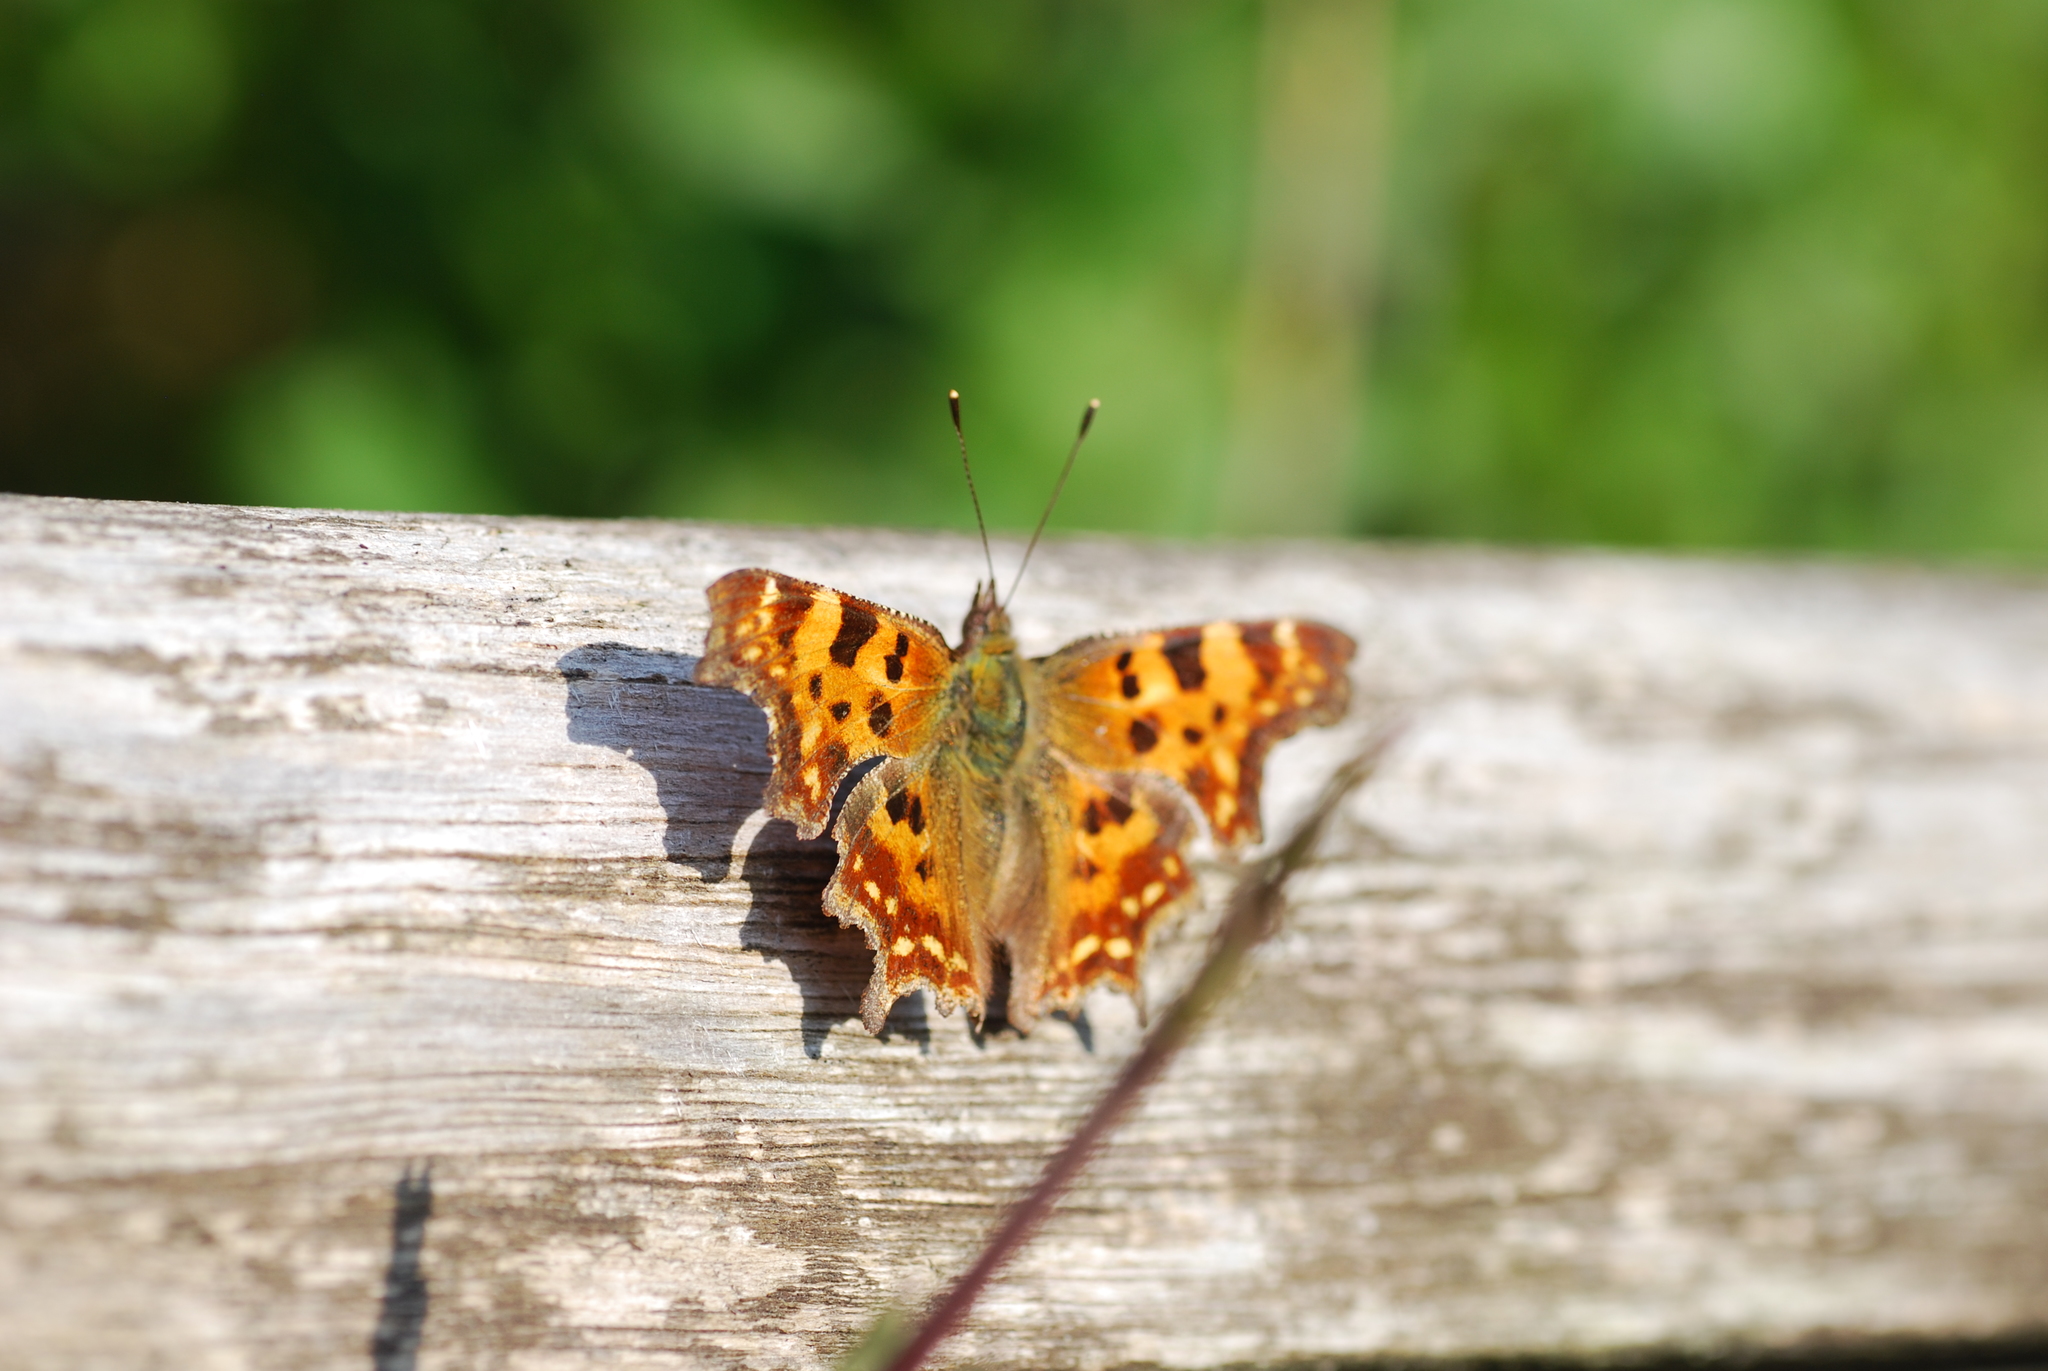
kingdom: Animalia
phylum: Arthropoda
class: Insecta
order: Lepidoptera
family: Nymphalidae
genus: Polygonia
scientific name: Polygonia c-album
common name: Comma
